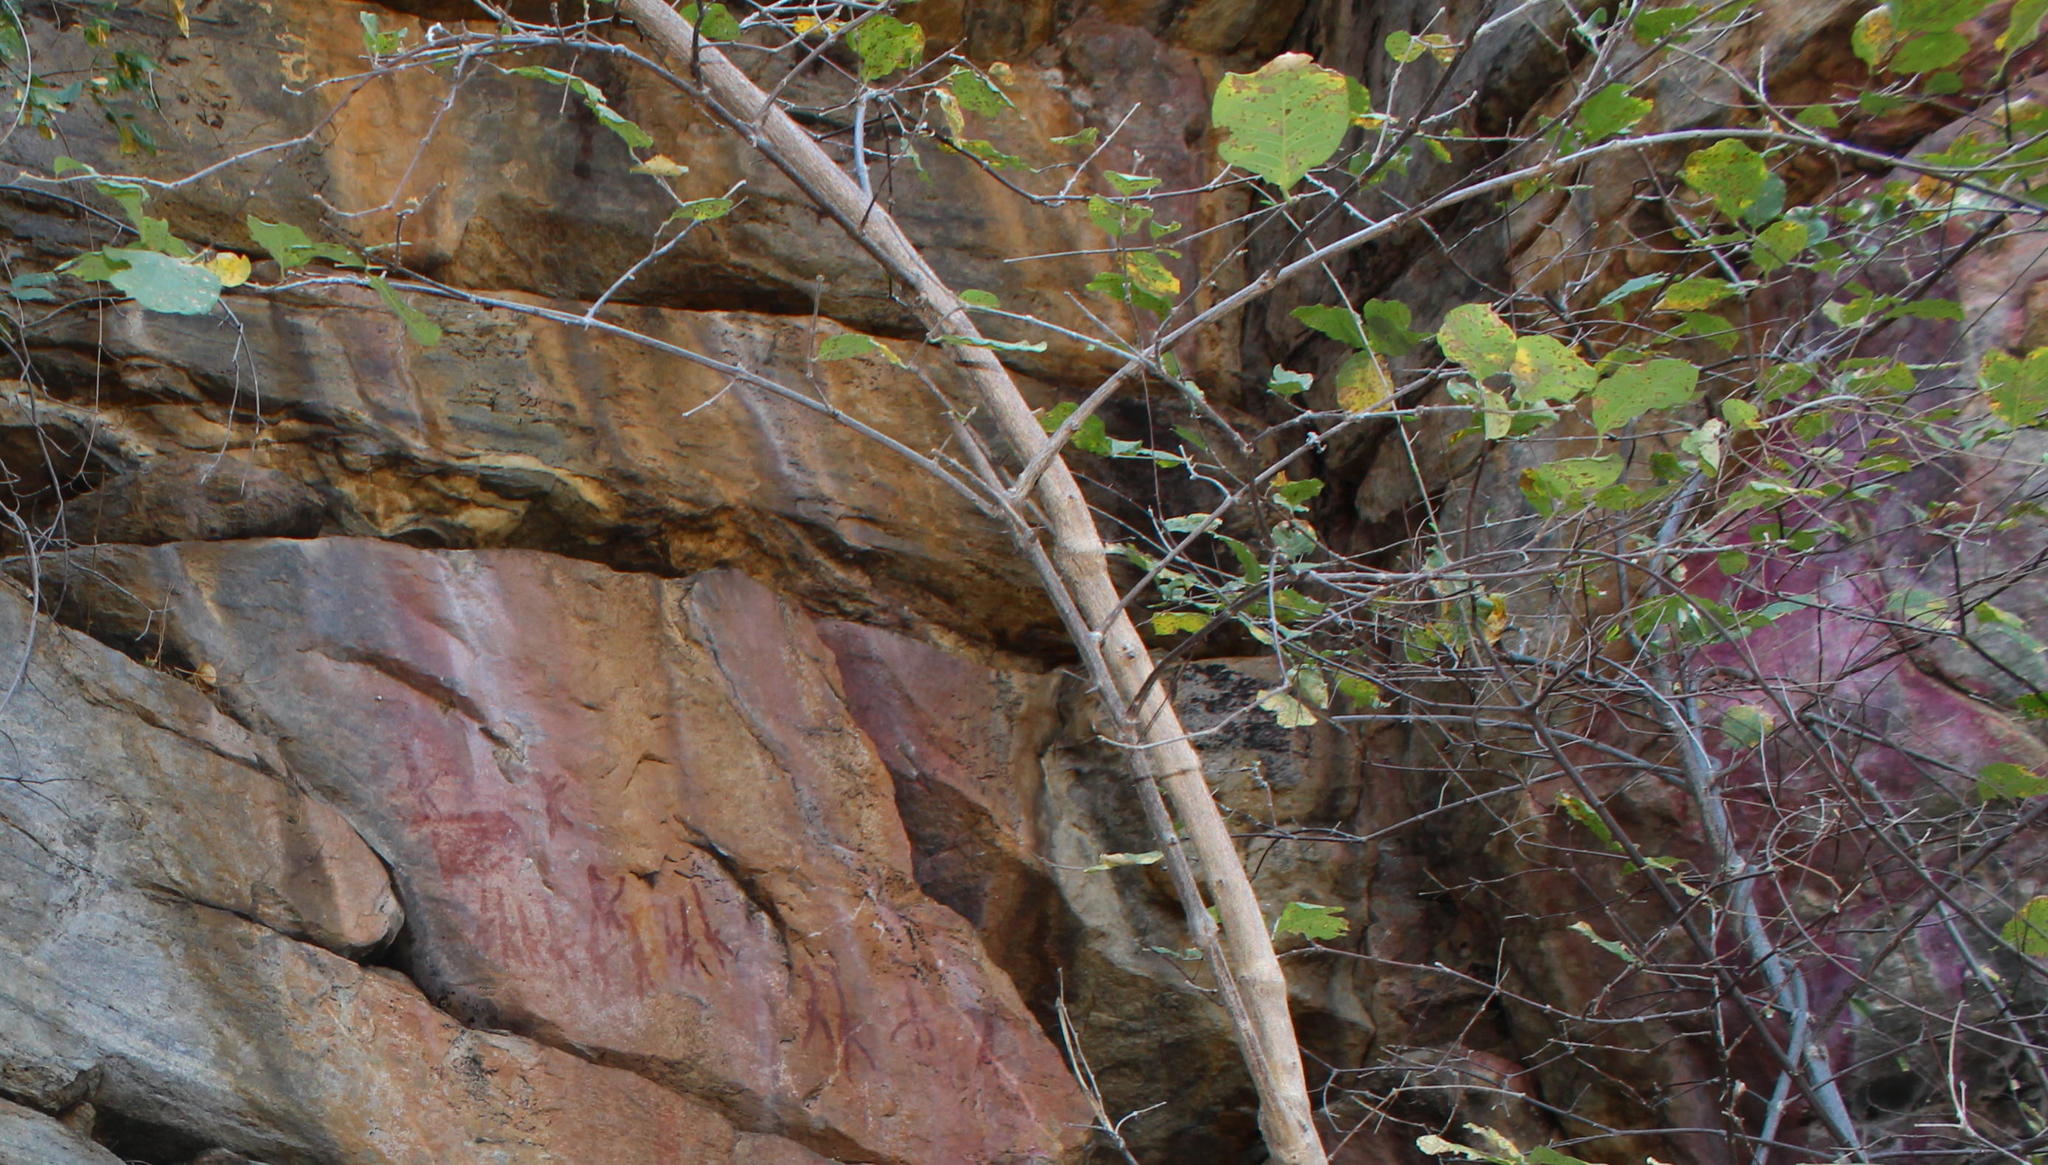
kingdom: Plantae
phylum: Tracheophyta
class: Magnoliopsida
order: Myrtales
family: Combretaceae
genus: Combretum
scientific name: Combretum mossambicense
